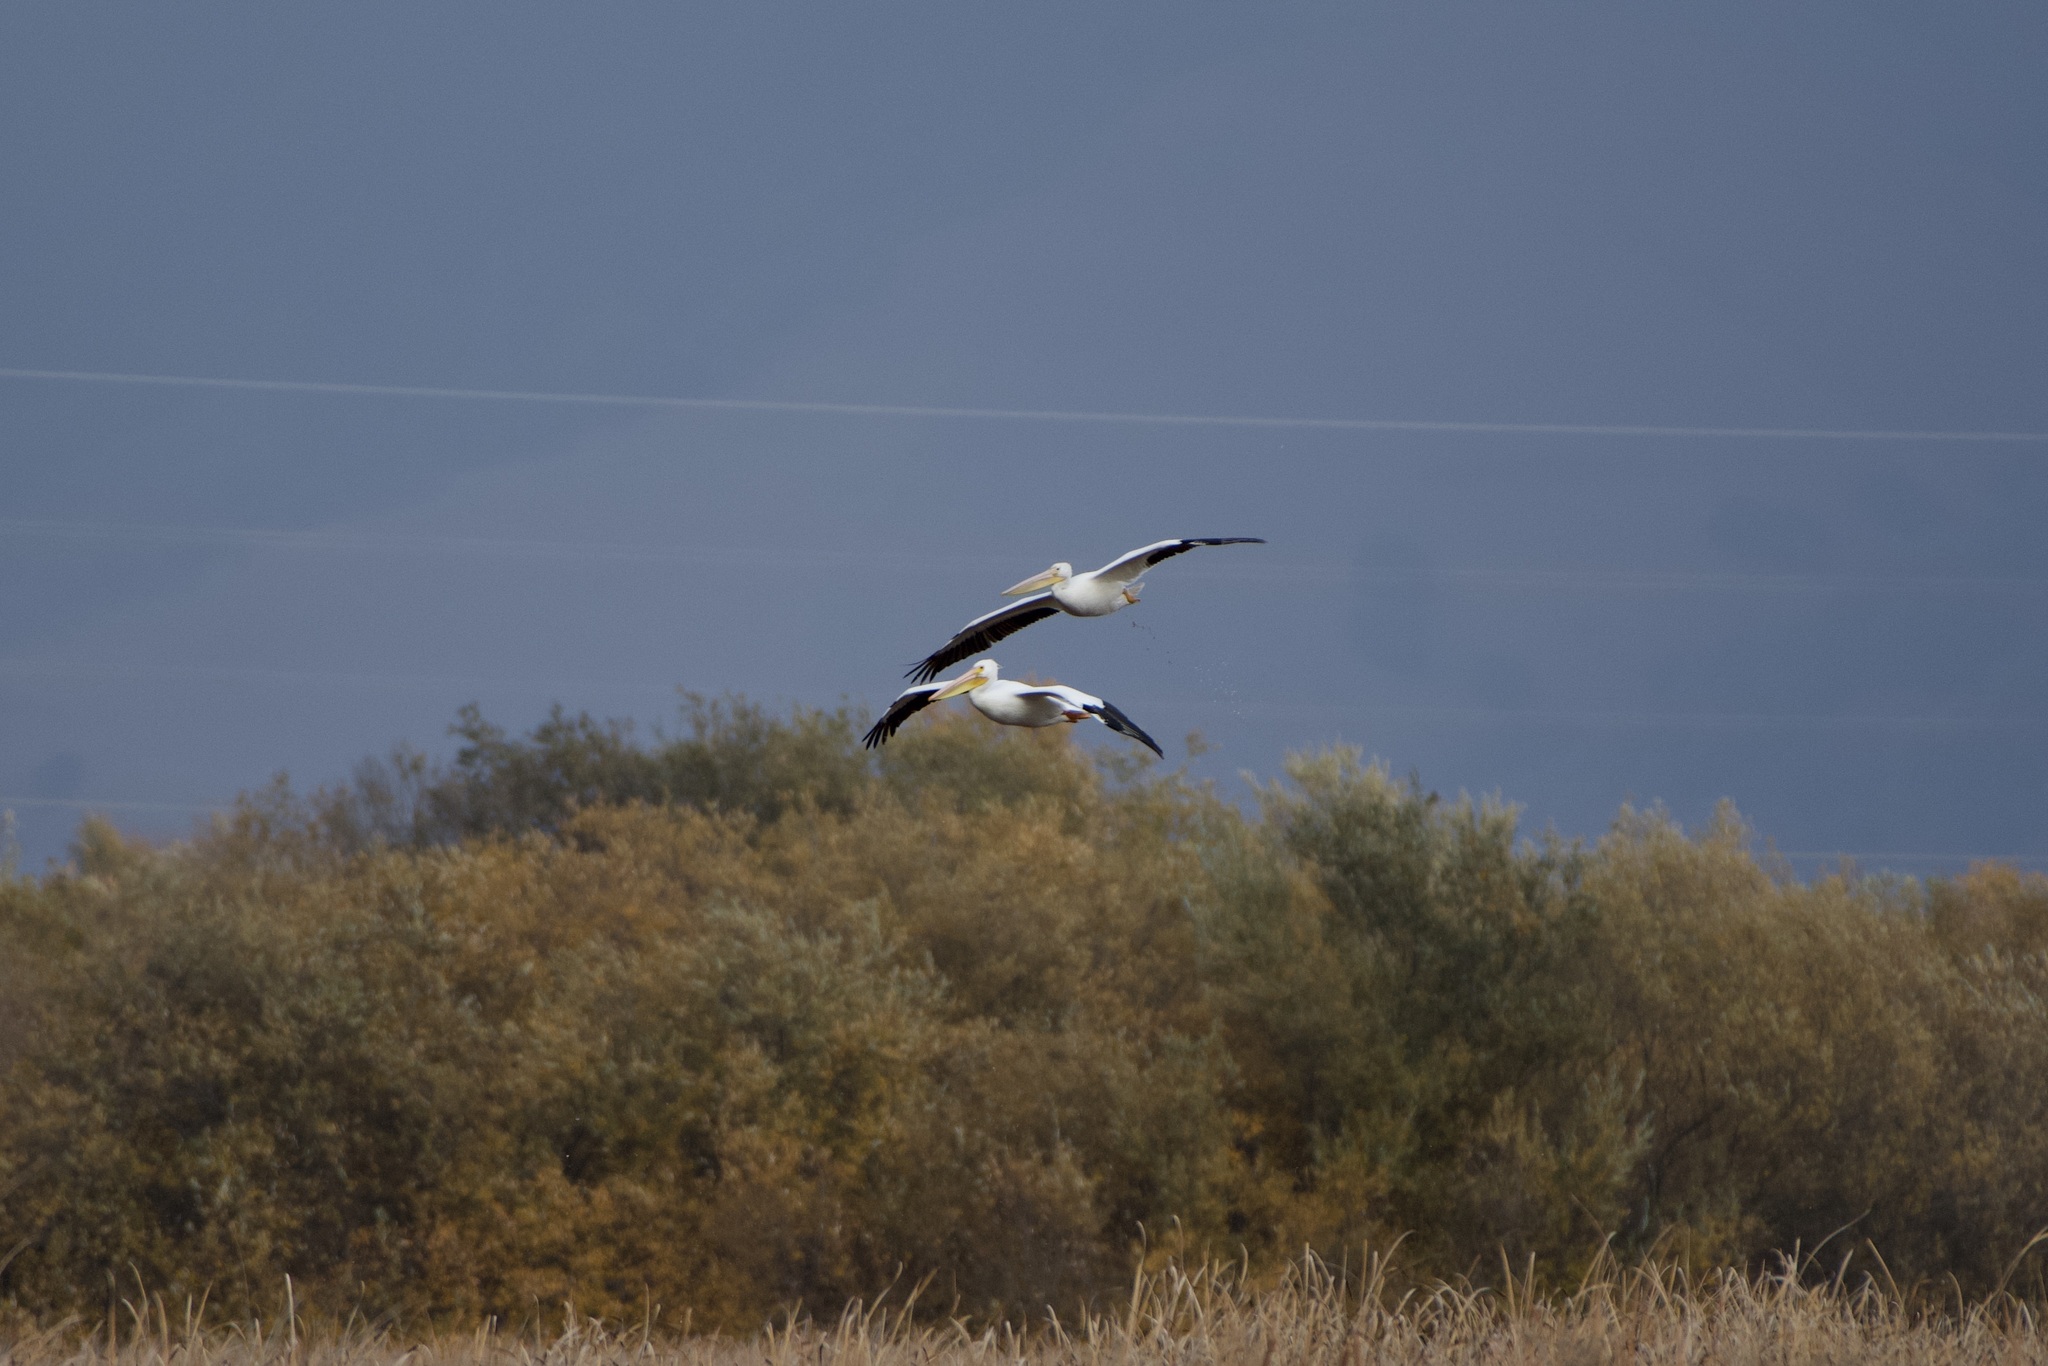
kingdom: Animalia
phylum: Chordata
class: Aves
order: Pelecaniformes
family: Pelecanidae
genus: Pelecanus
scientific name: Pelecanus erythrorhynchos
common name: American white pelican
